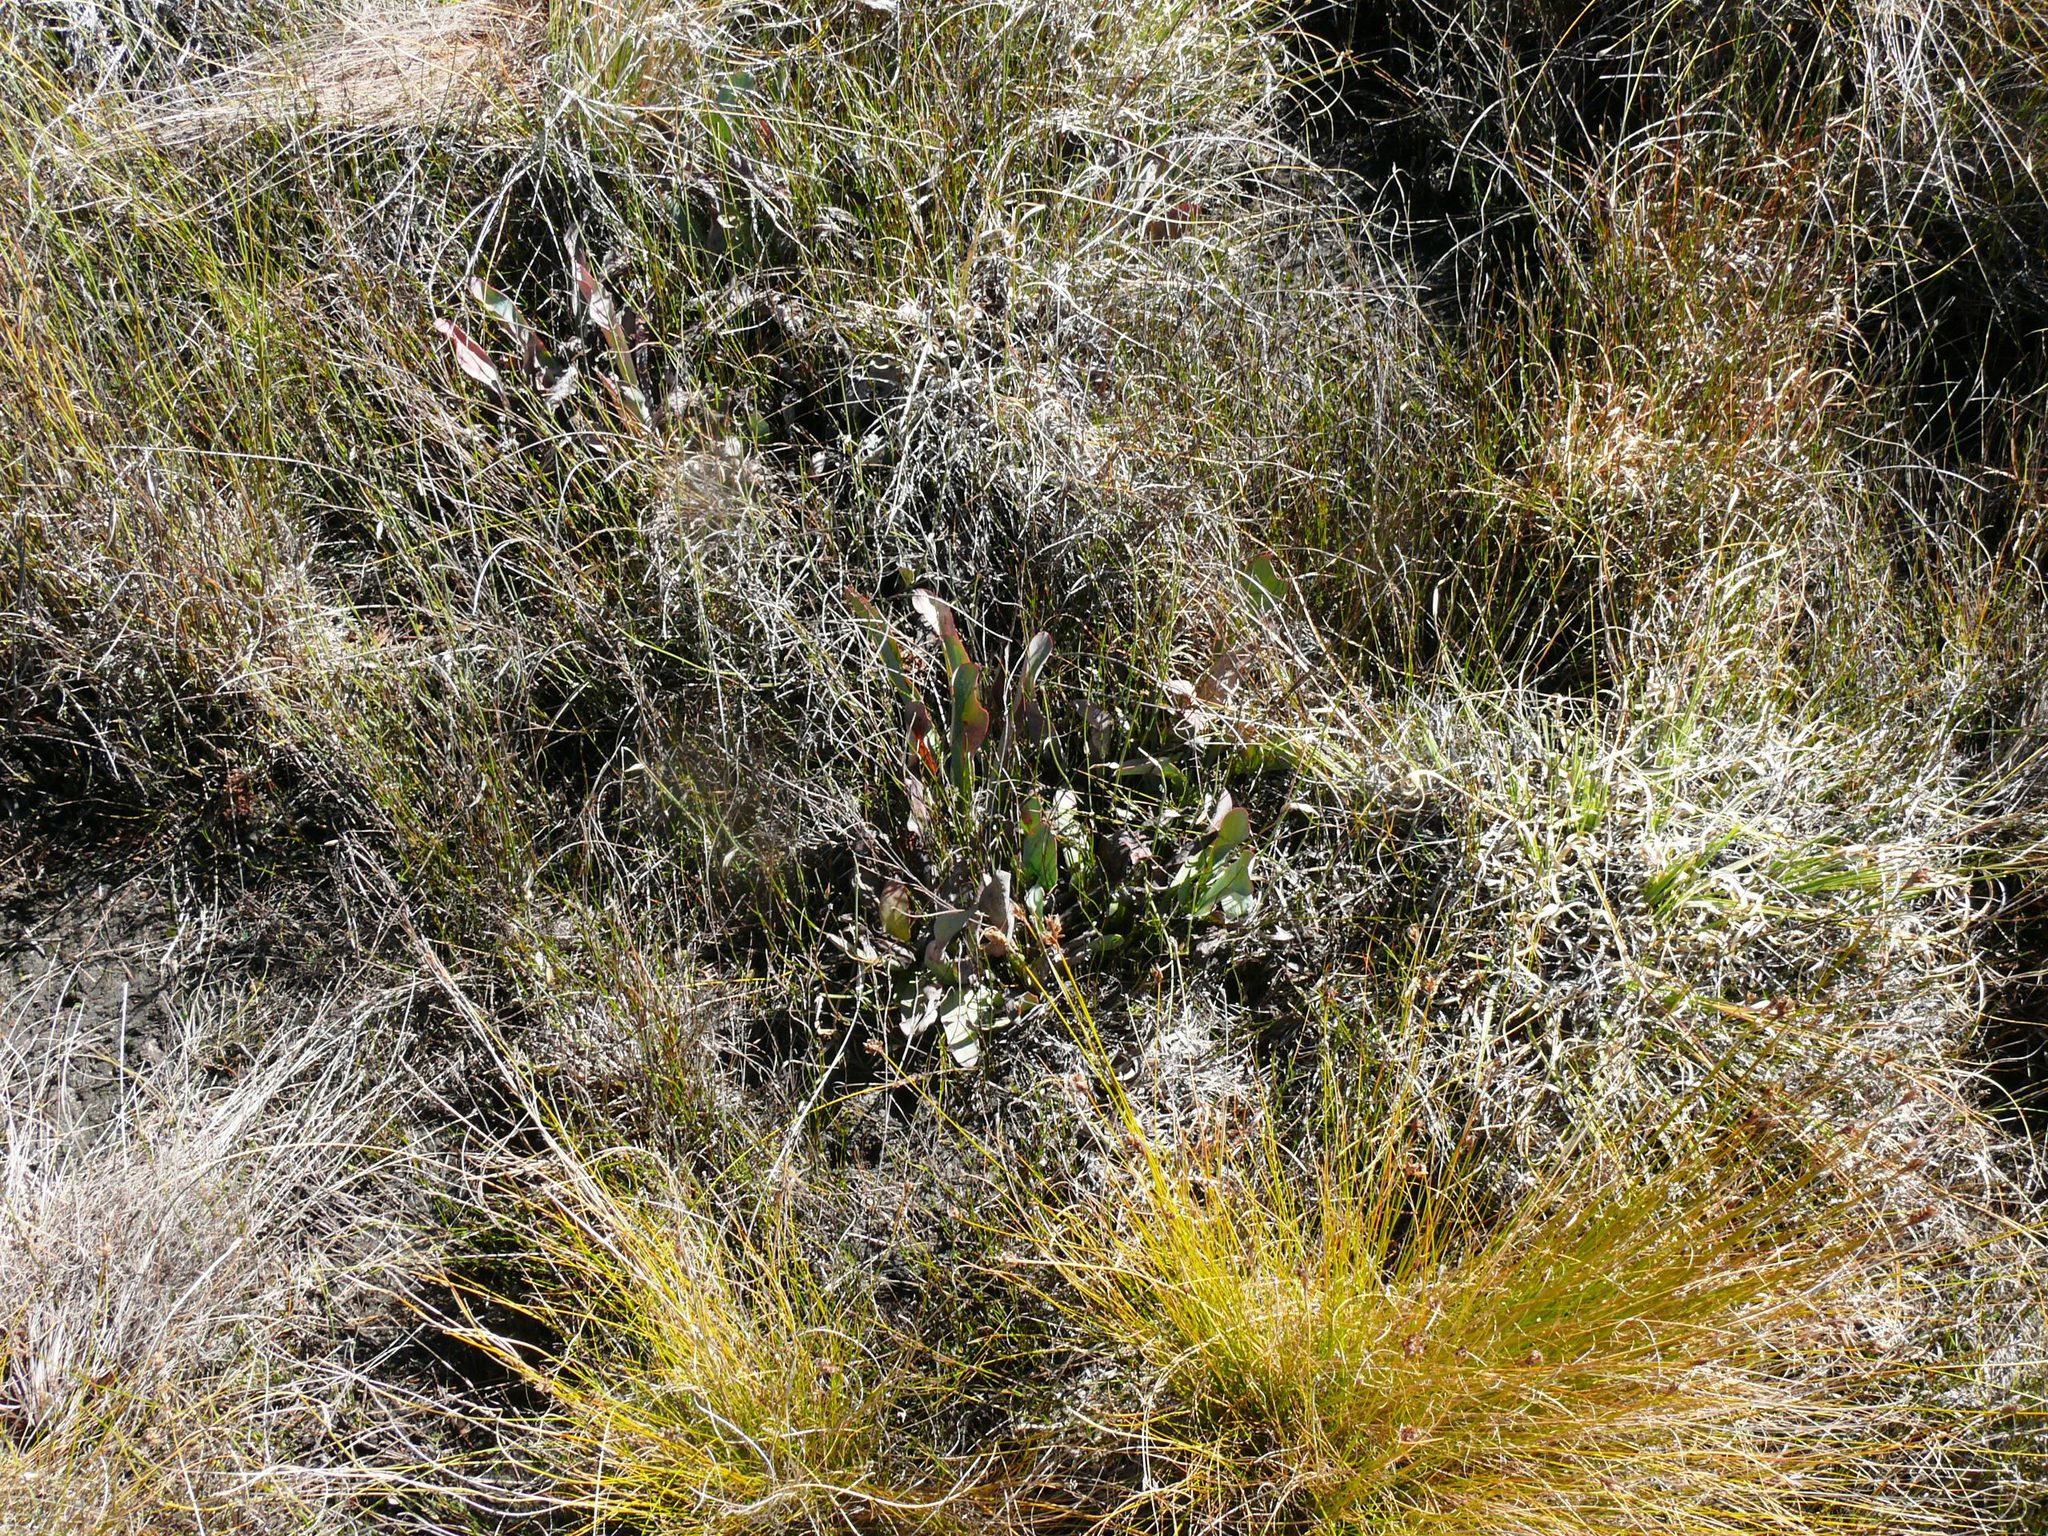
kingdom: Plantae
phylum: Tracheophyta
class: Magnoliopsida
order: Proteales
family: Proteaceae
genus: Protea
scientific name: Protea laevis
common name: Smooth-leaf sugarbush
